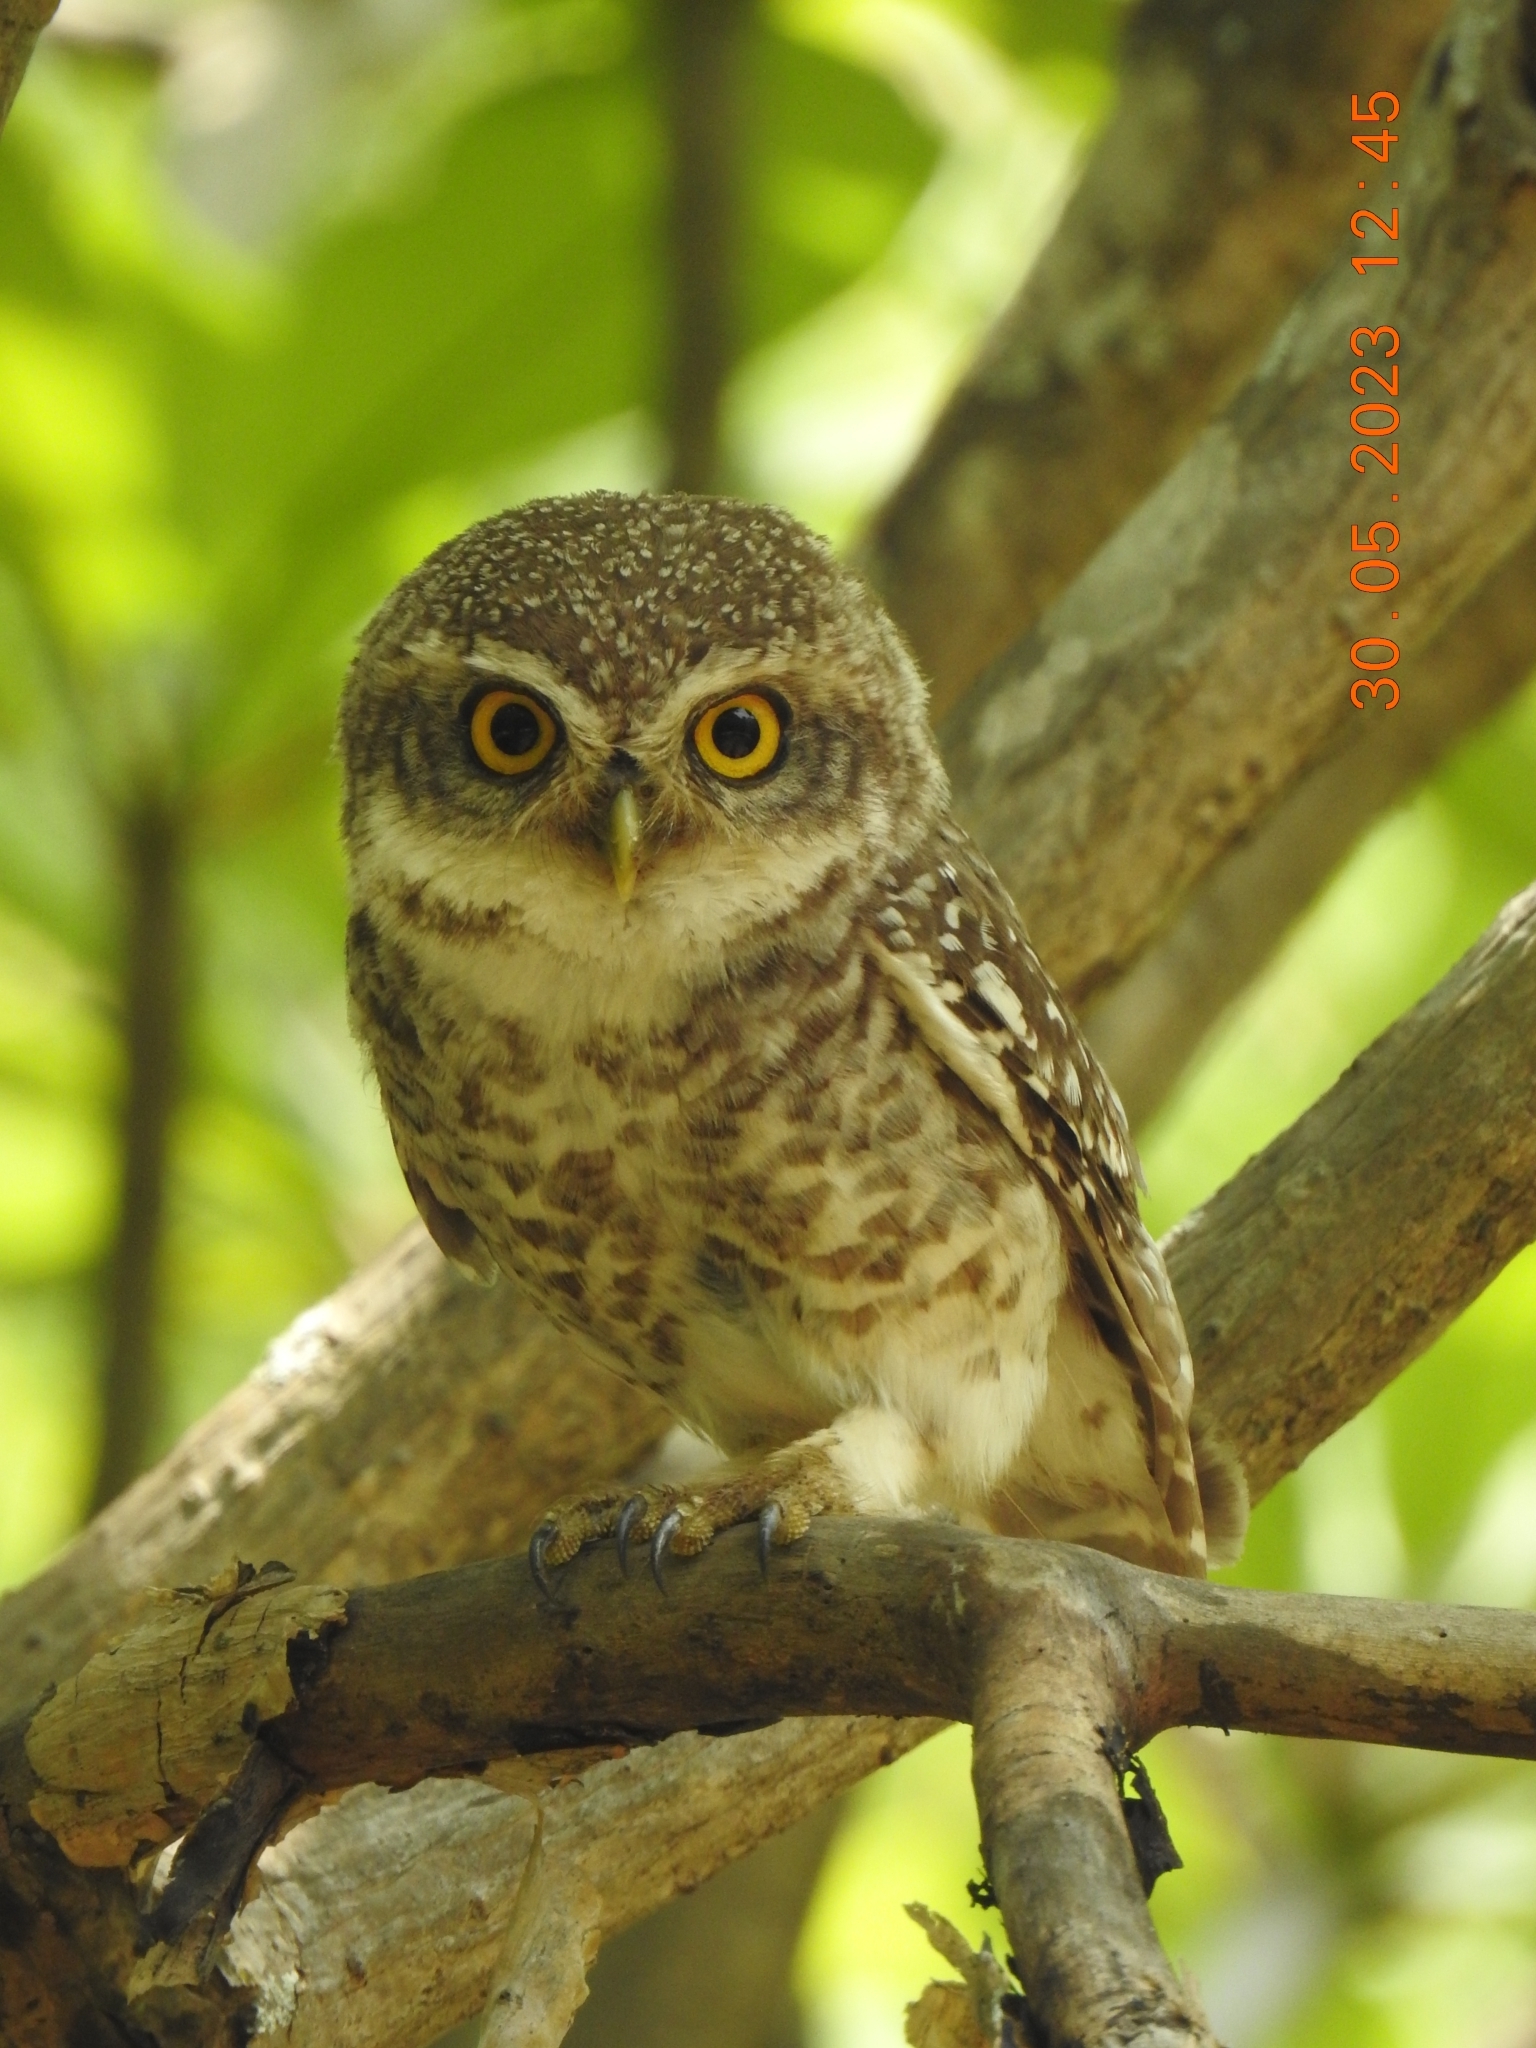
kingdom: Animalia
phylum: Chordata
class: Aves
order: Strigiformes
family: Strigidae
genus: Athene
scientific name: Athene brama
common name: Spotted owlet
